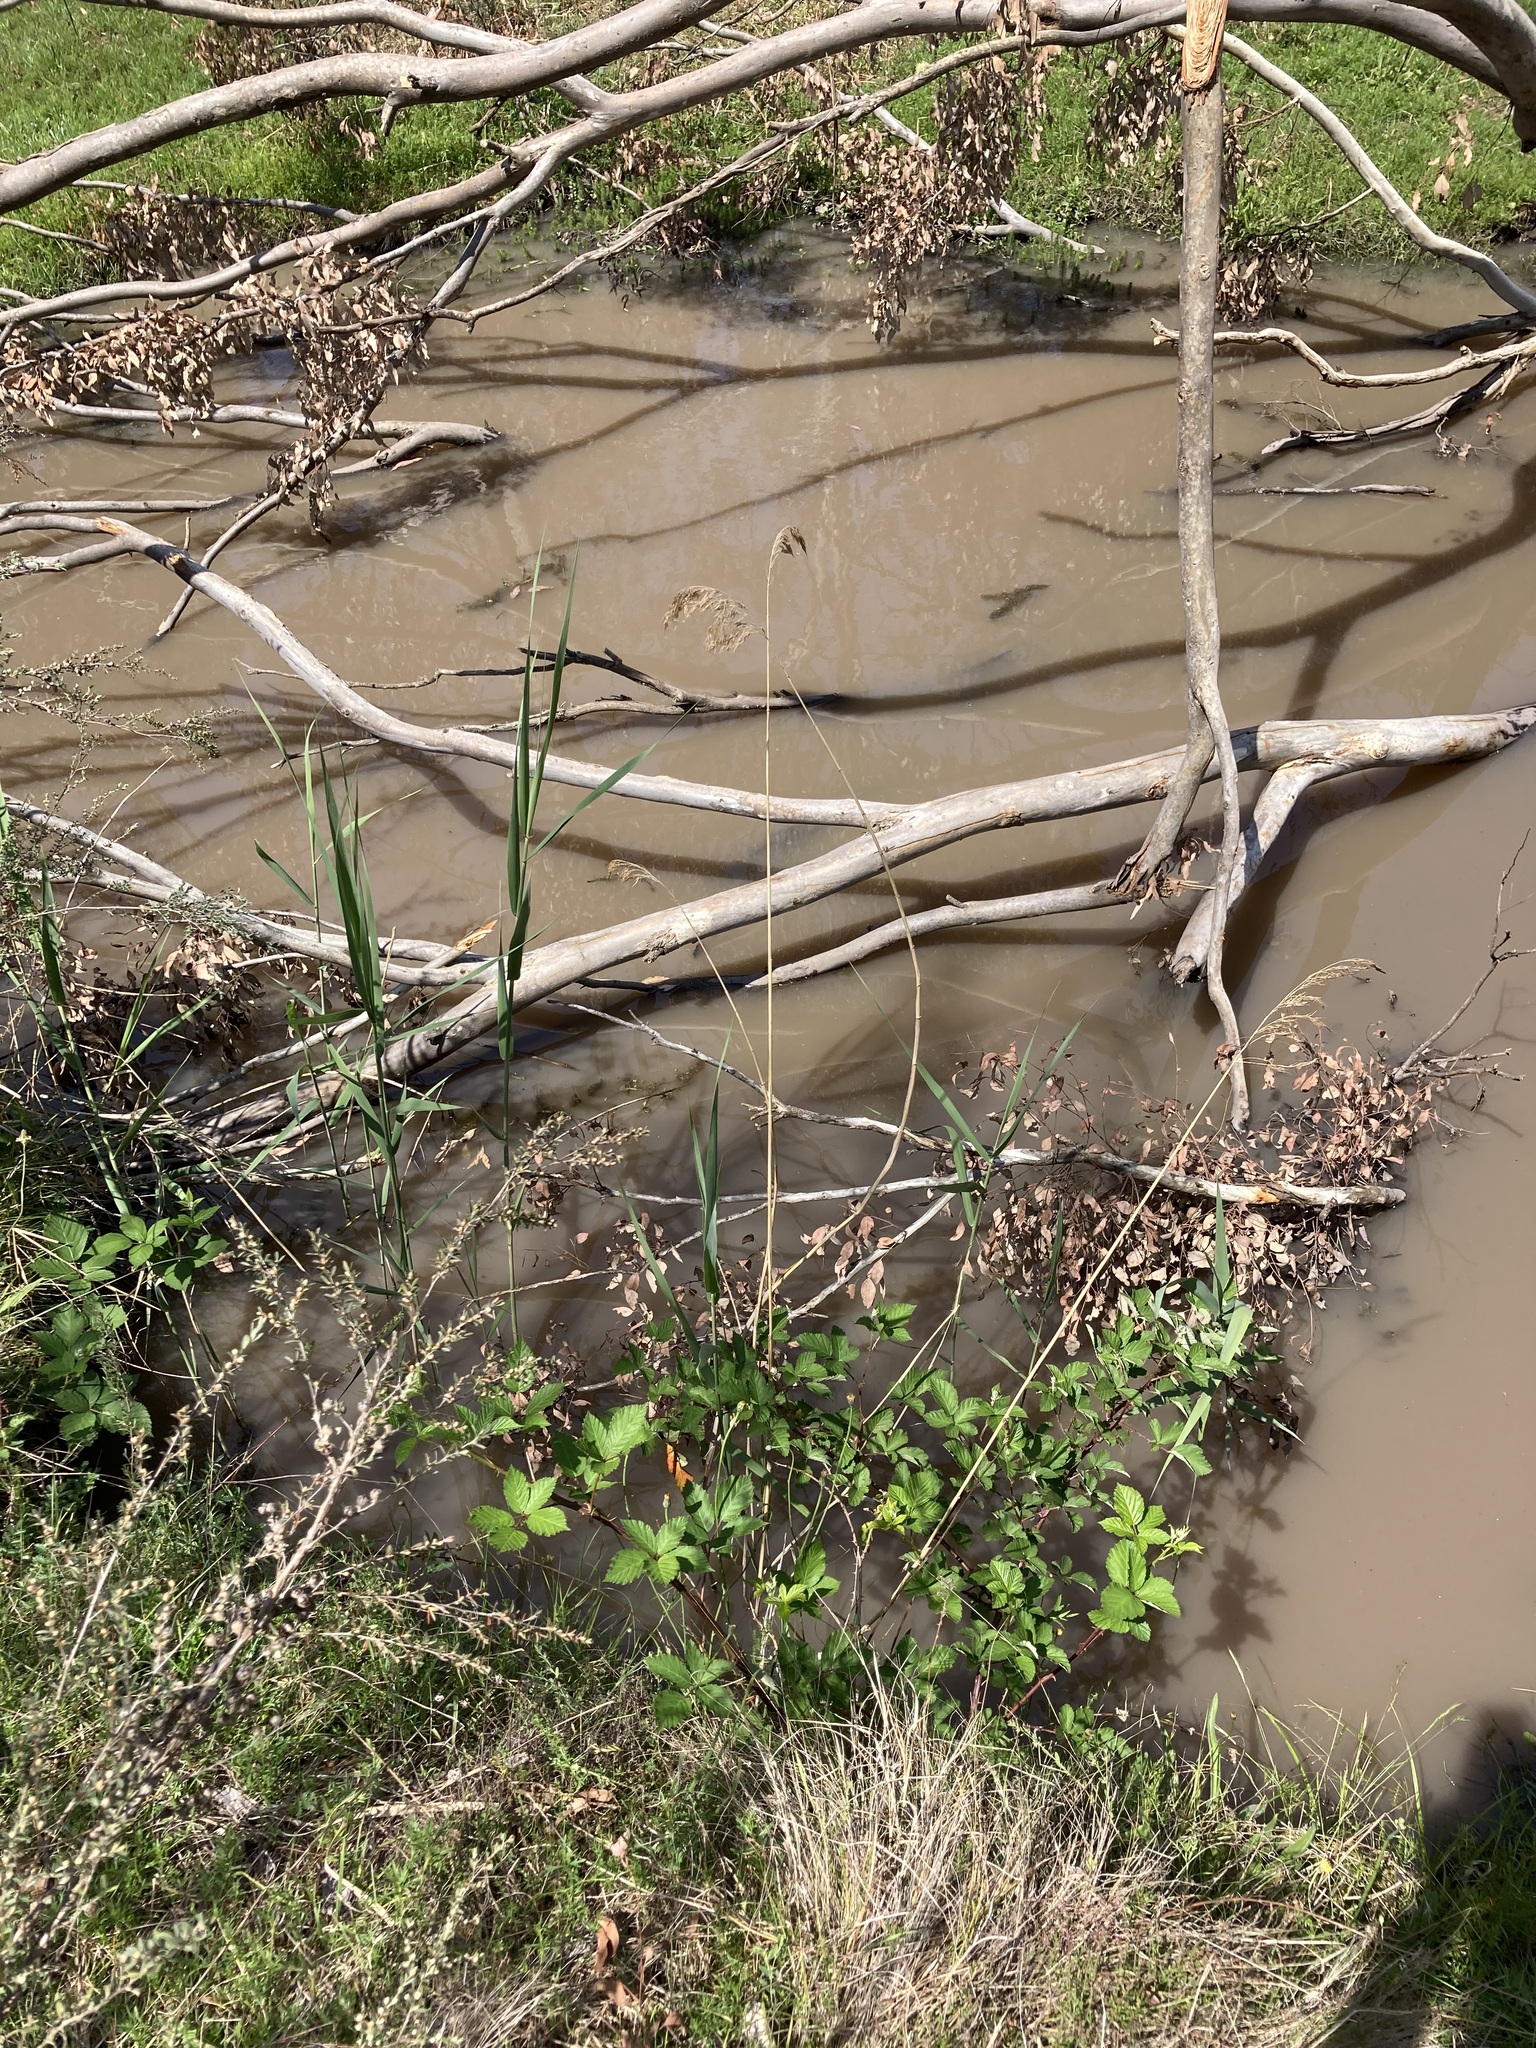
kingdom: Plantae
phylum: Tracheophyta
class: Liliopsida
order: Poales
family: Poaceae
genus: Phragmites
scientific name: Phragmites australis
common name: Common reed
